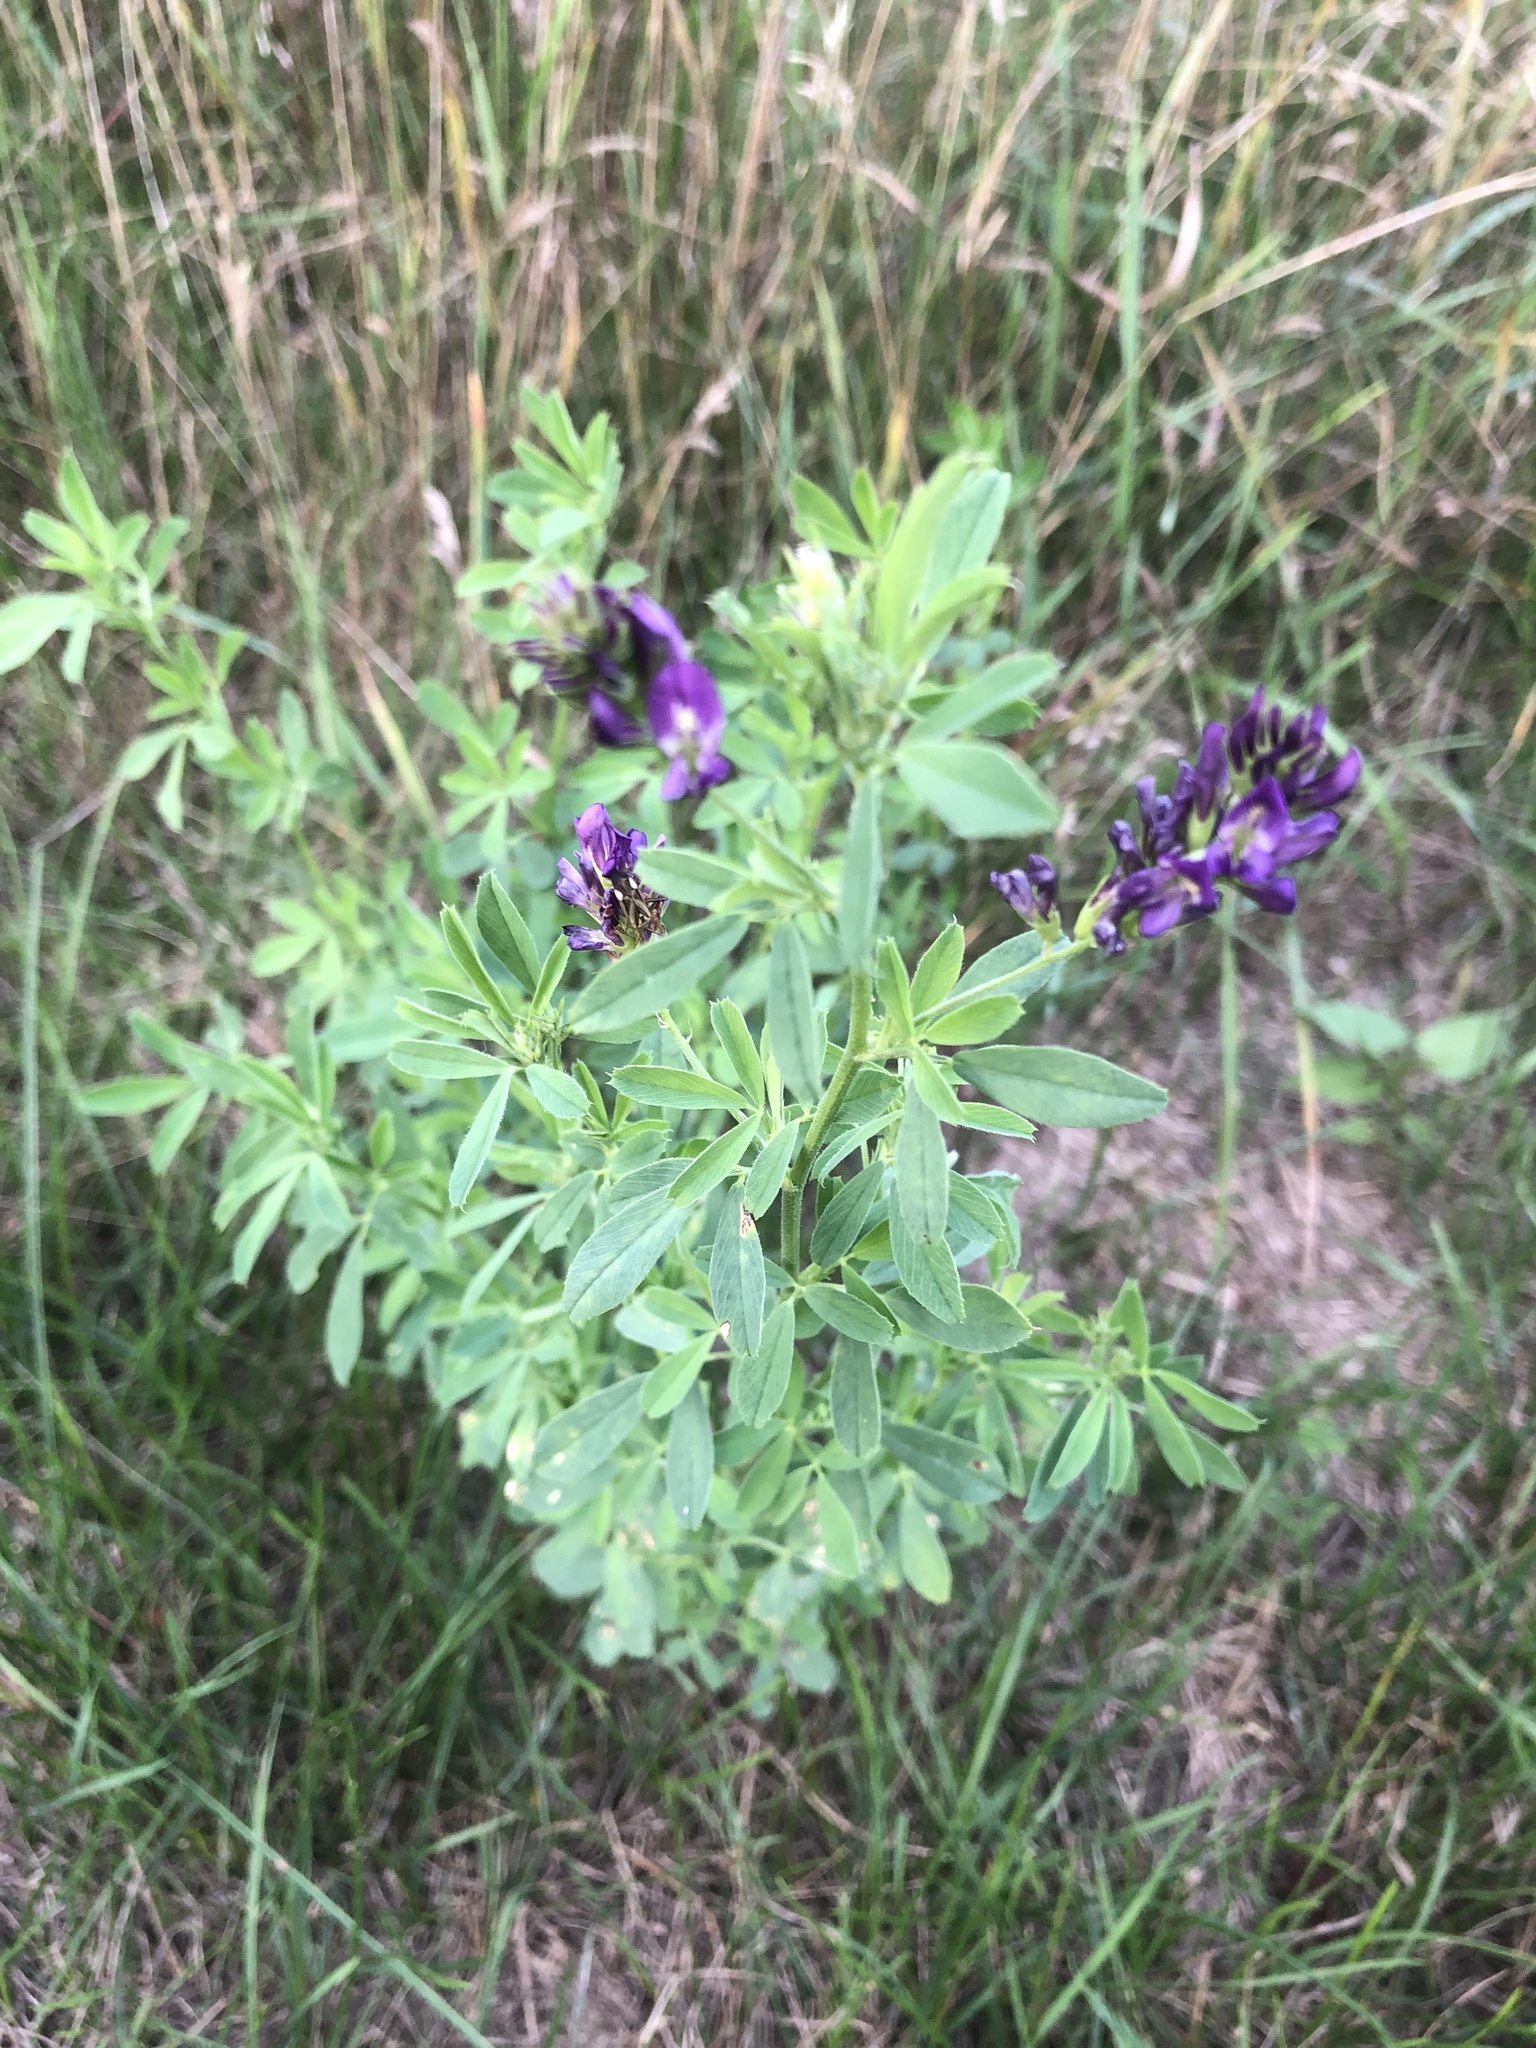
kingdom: Plantae
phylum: Tracheophyta
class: Magnoliopsida
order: Fabales
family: Fabaceae
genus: Medicago
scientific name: Medicago sativa
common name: Alfalfa
